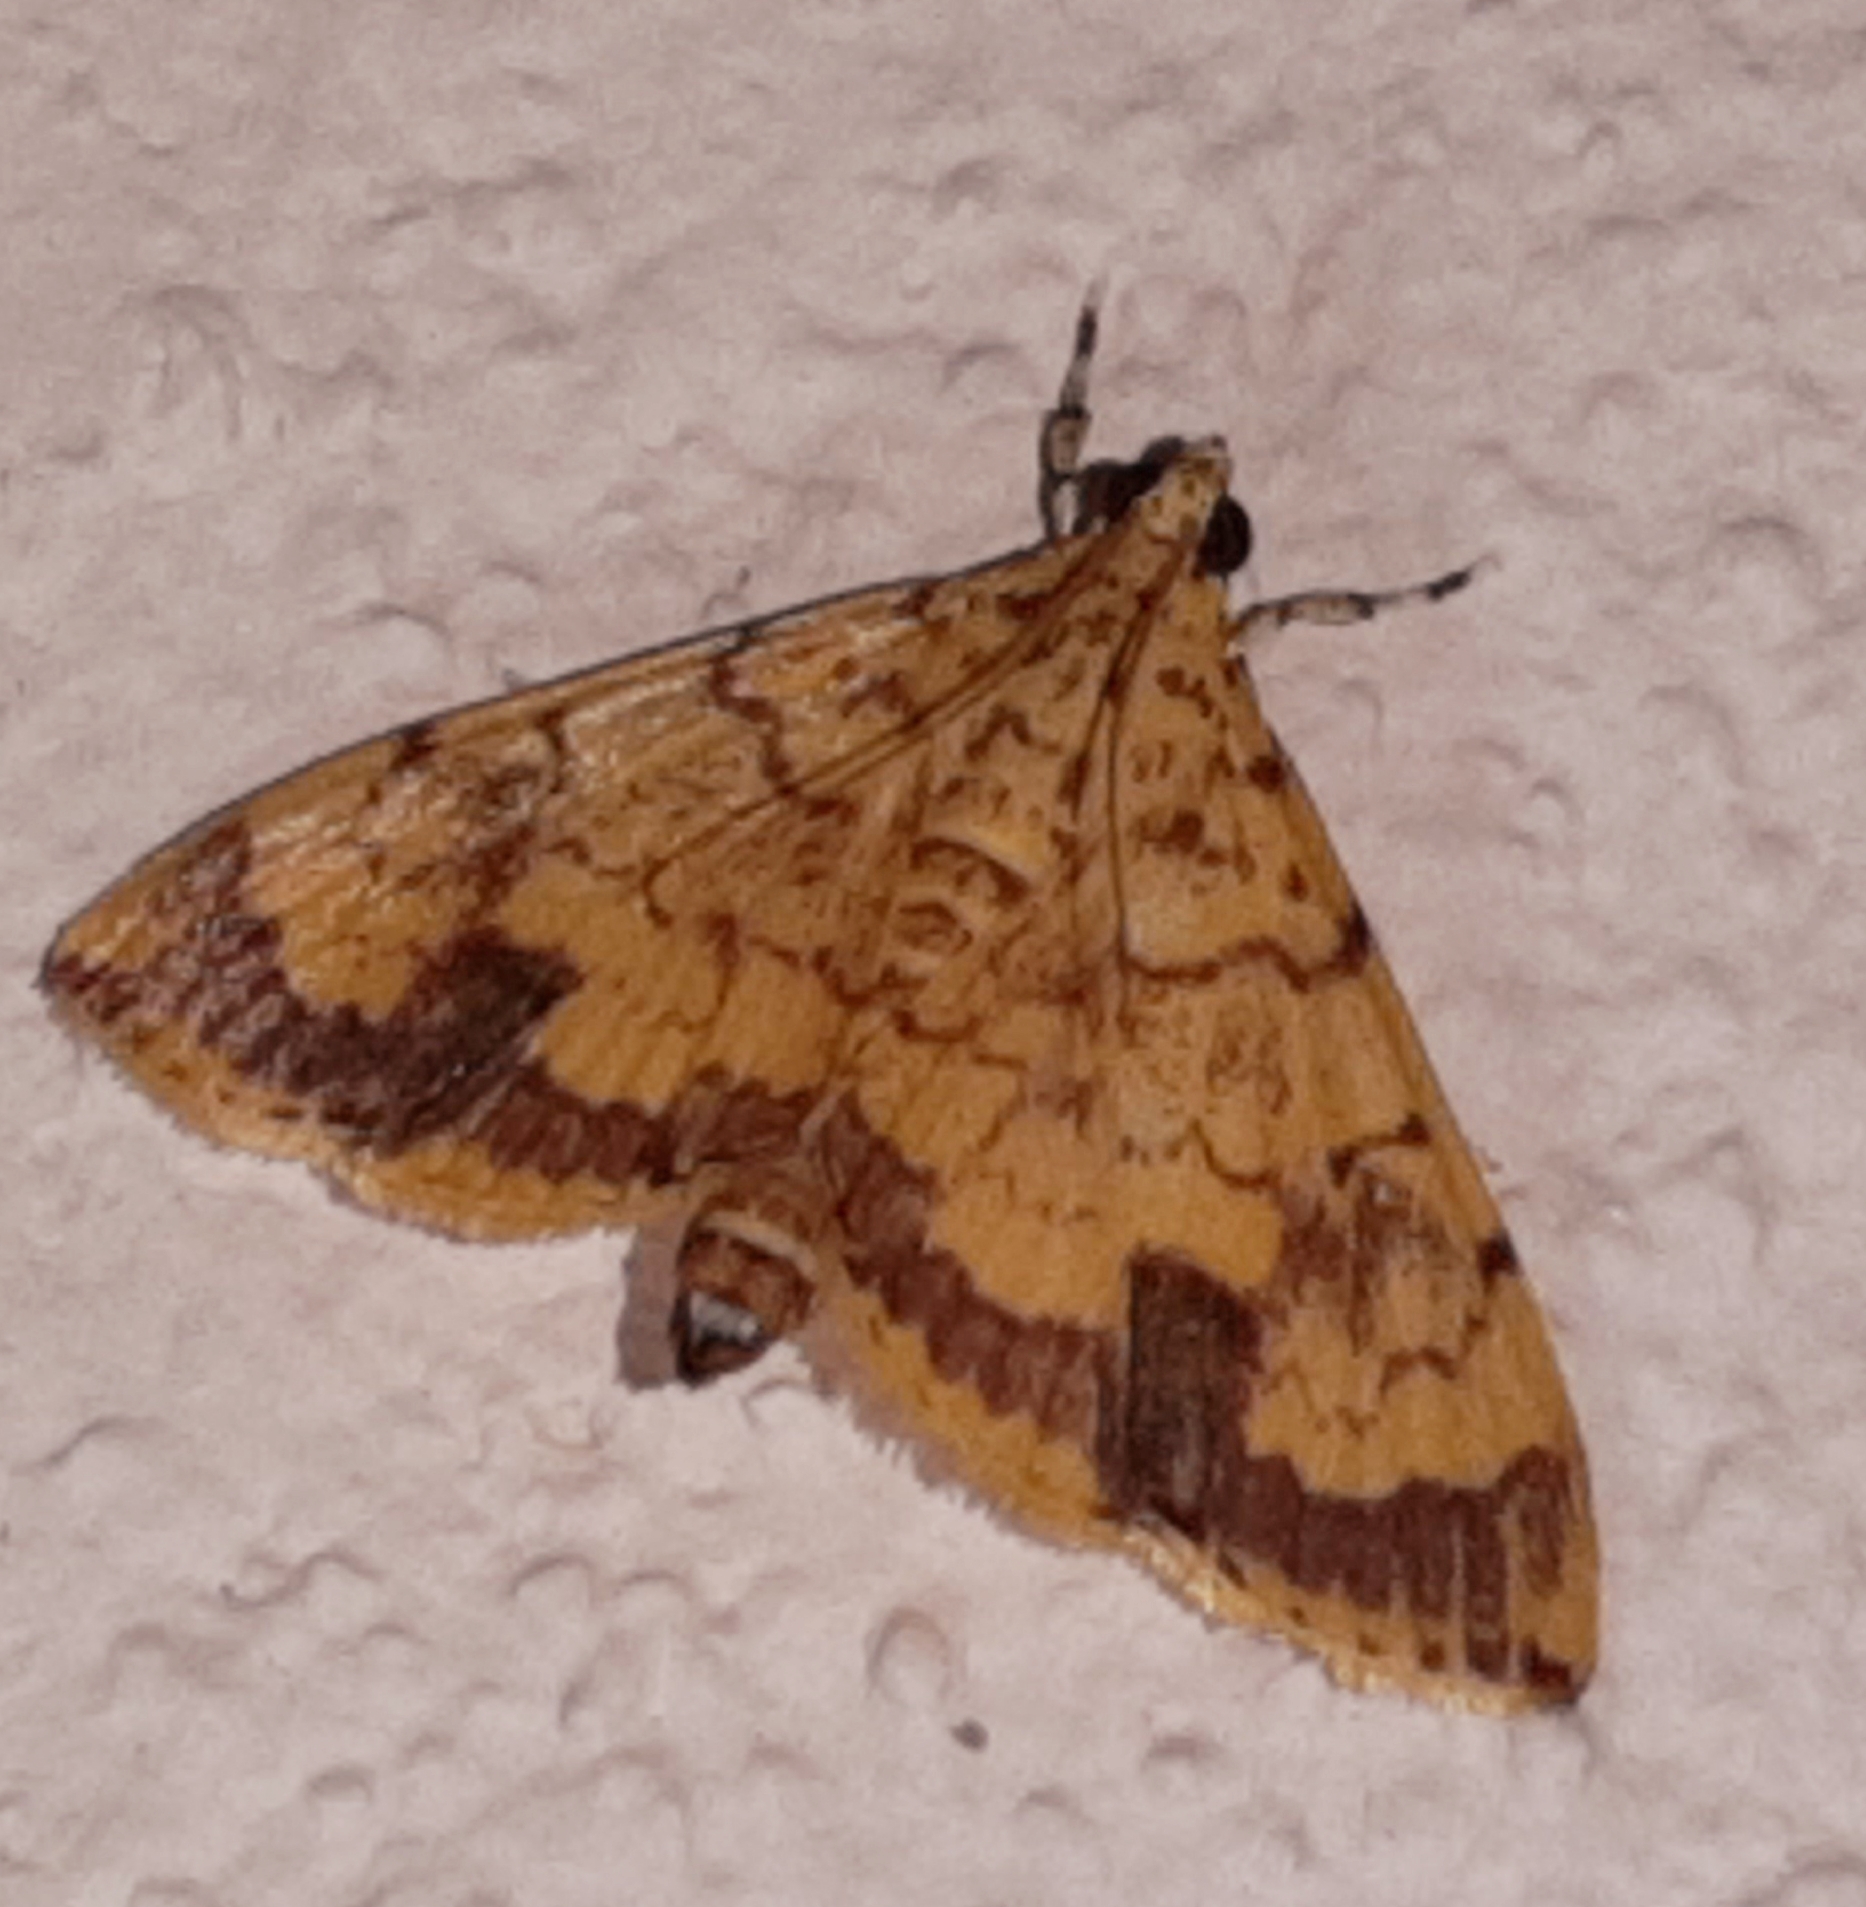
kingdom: Animalia
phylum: Arthropoda
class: Insecta
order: Lepidoptera
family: Crambidae
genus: Portentomorpha
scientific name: Portentomorpha xanthialis
